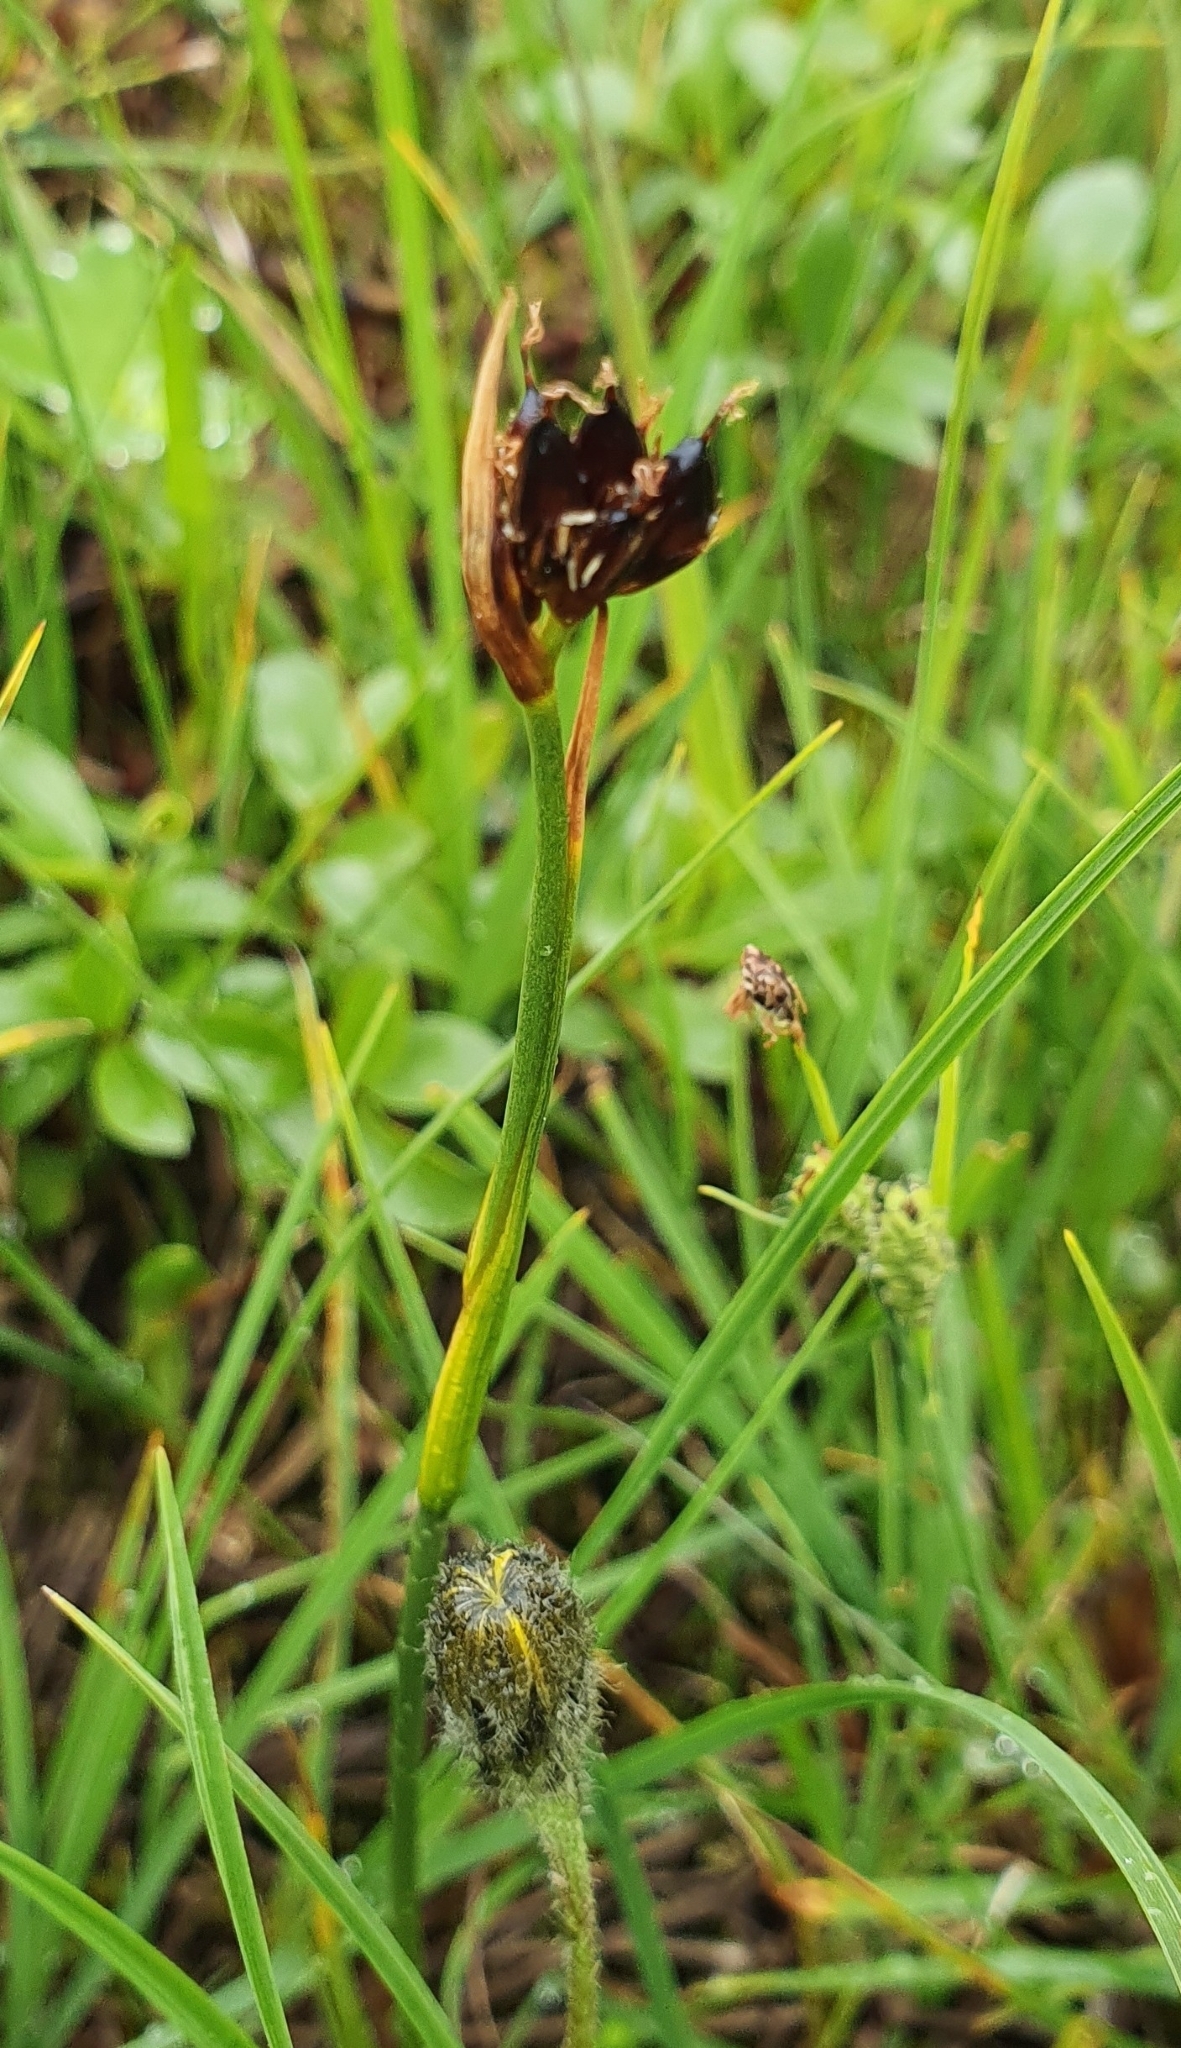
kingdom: Plantae
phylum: Tracheophyta
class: Liliopsida
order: Poales
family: Juncaceae
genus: Juncus
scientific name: Juncus castaneus
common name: Chestnut rush
